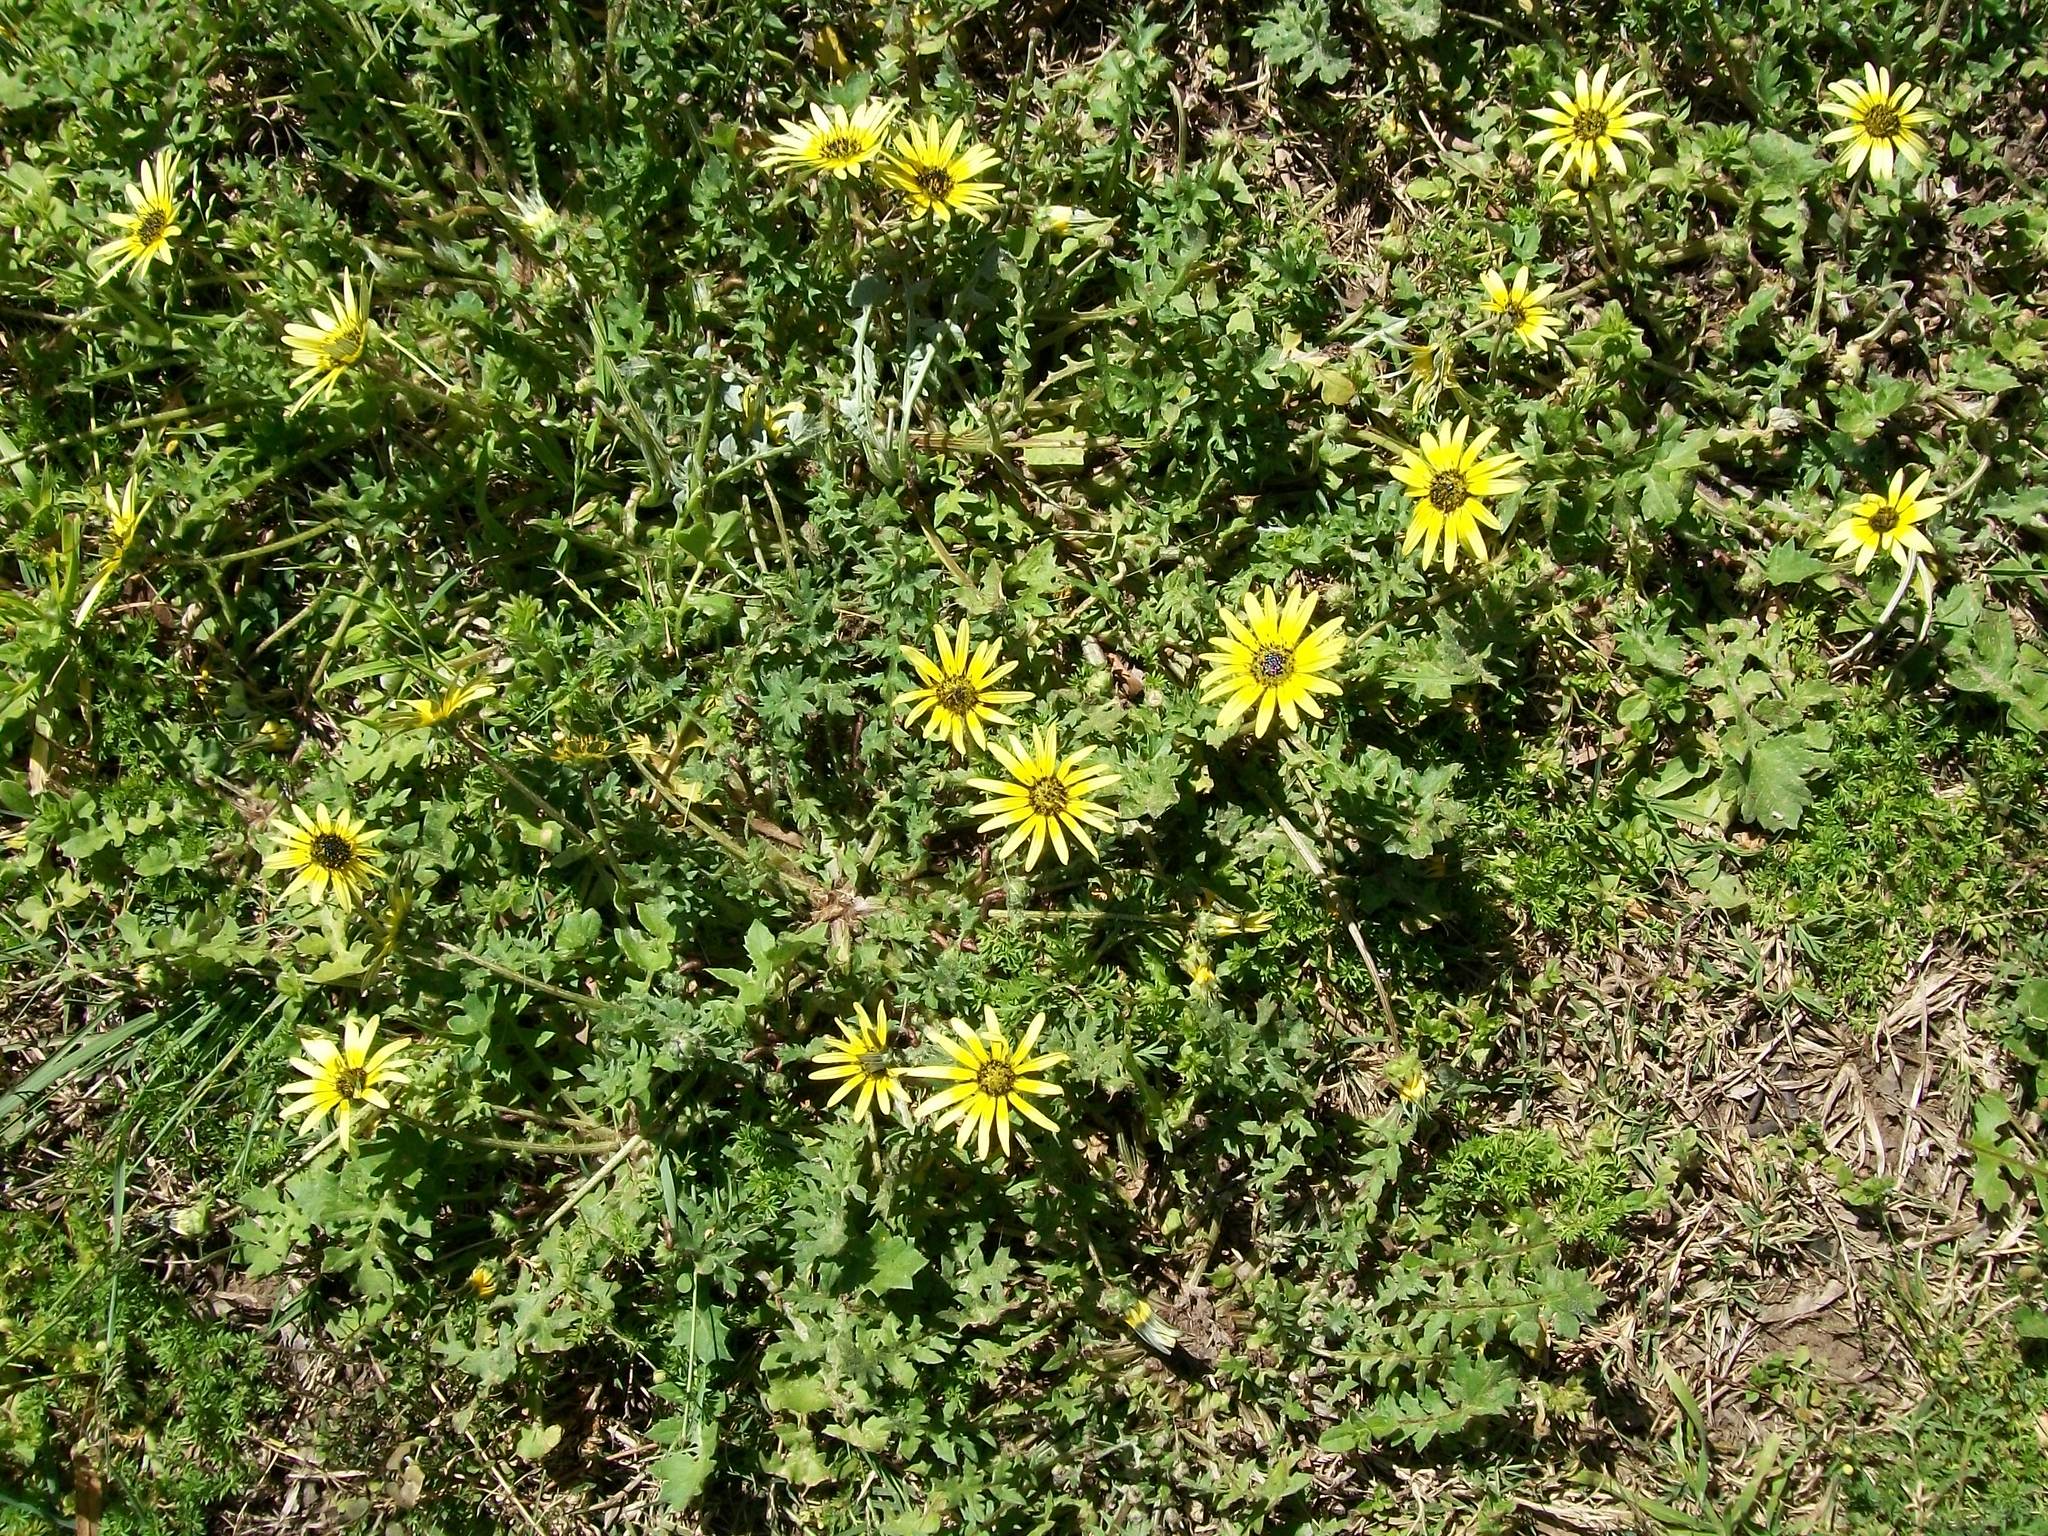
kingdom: Plantae
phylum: Tracheophyta
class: Magnoliopsida
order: Asterales
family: Asteraceae
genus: Arctotheca
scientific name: Arctotheca calendula
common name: Capeweed
